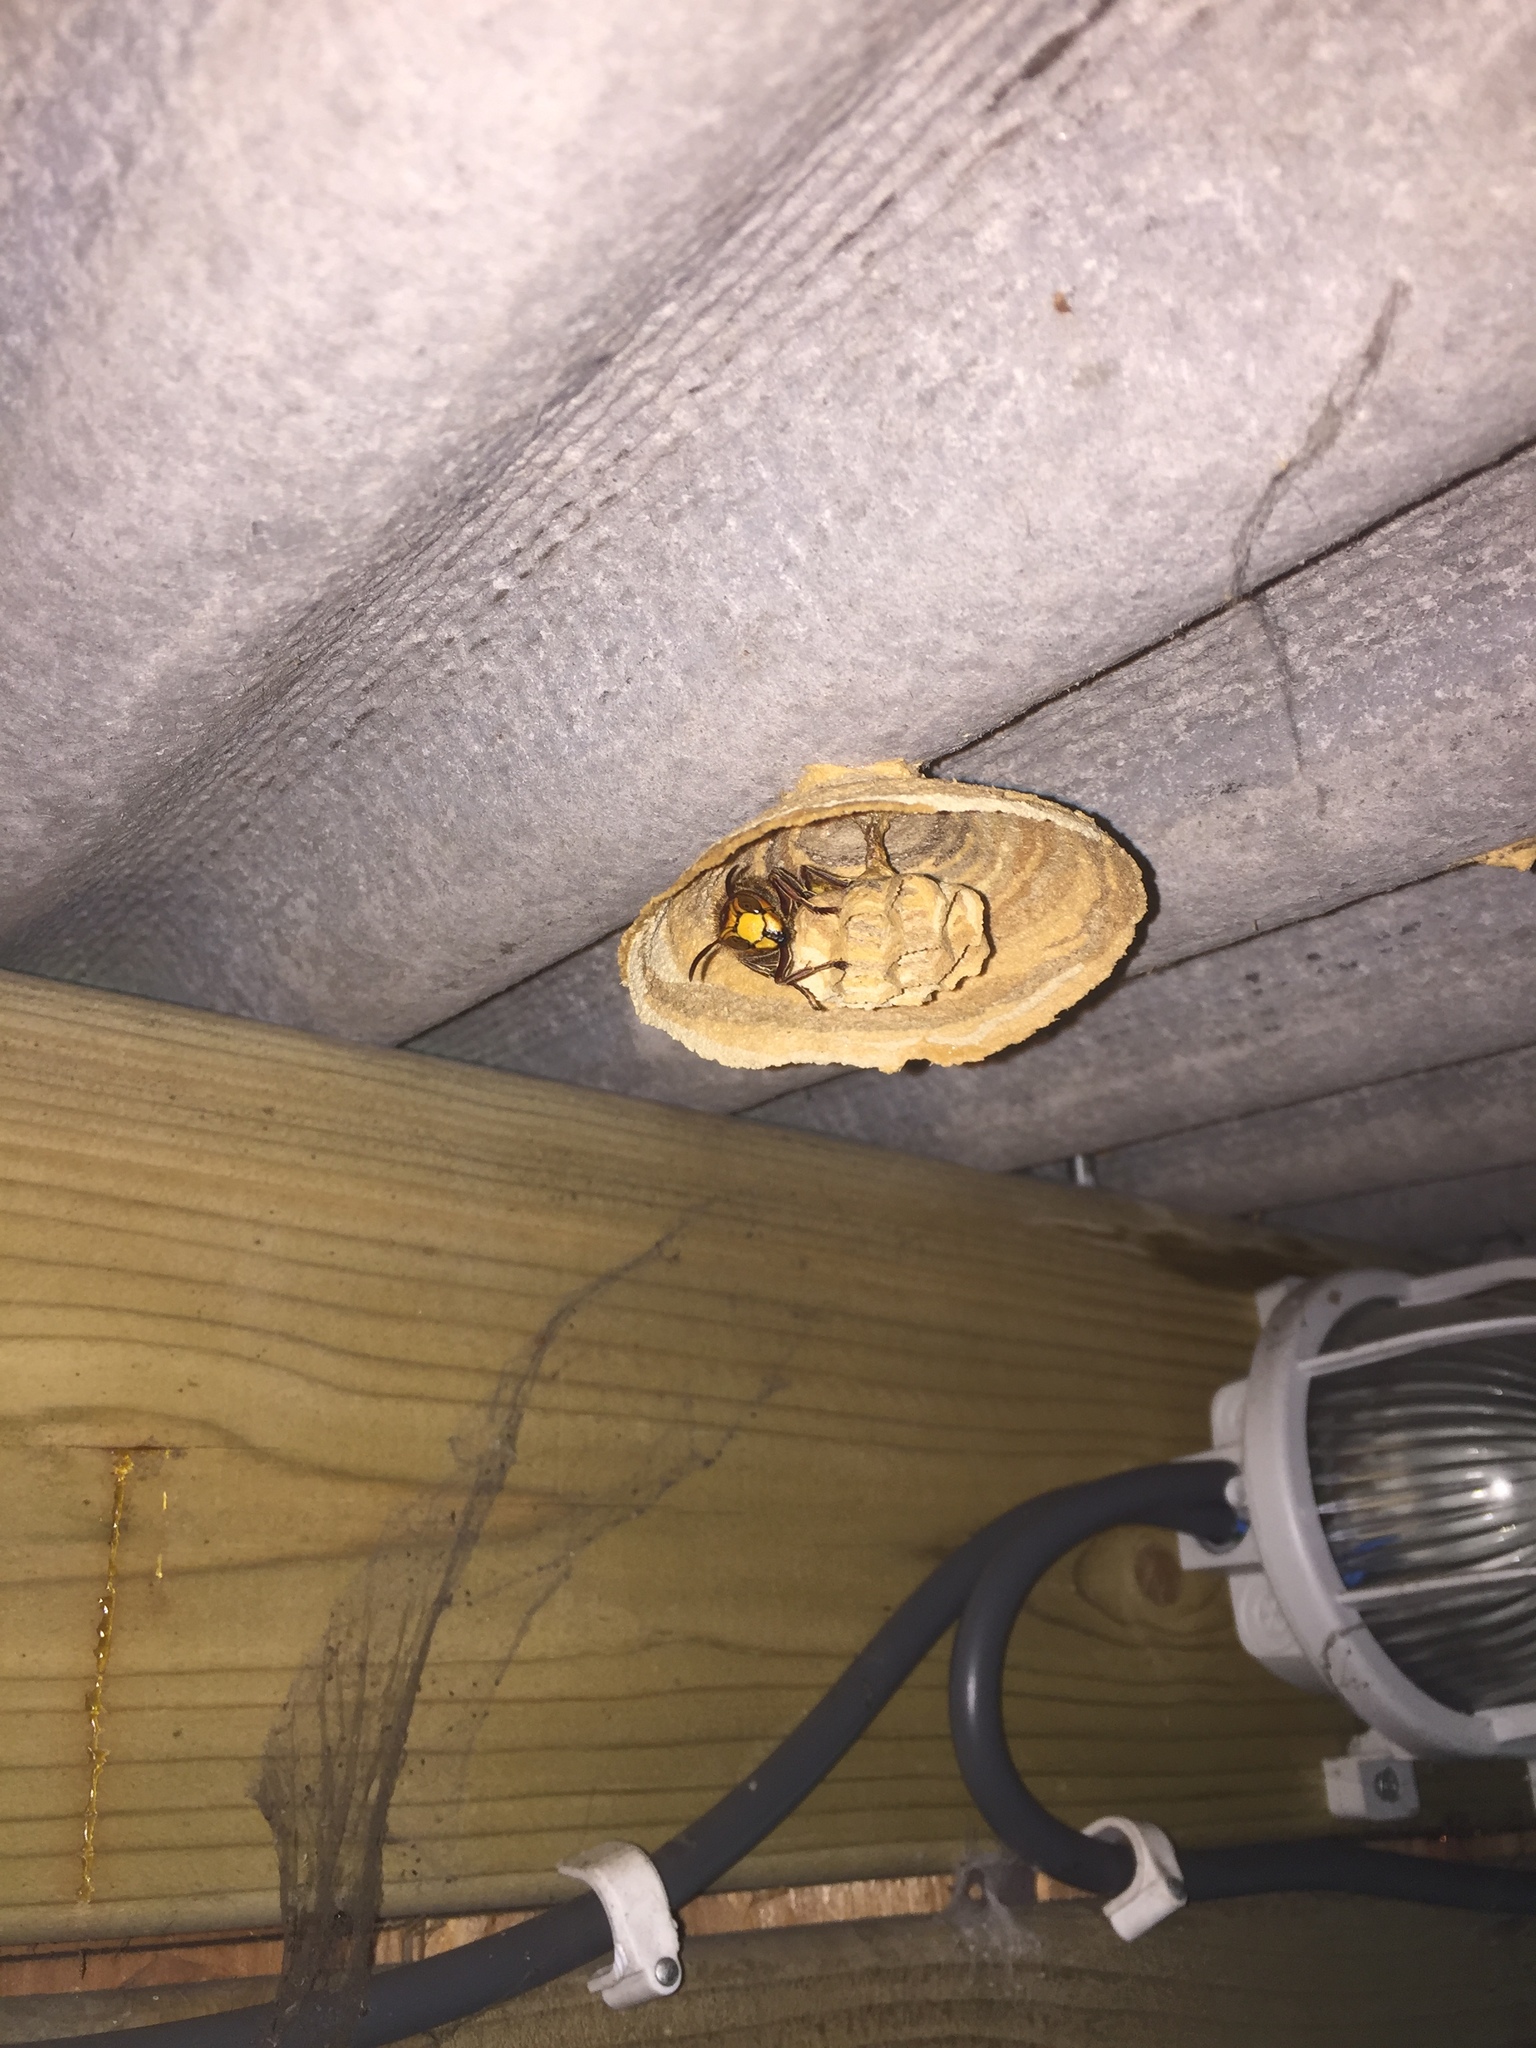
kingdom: Animalia
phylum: Arthropoda
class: Insecta
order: Hymenoptera
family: Vespidae
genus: Vespa
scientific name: Vespa crabro
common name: Hornet
